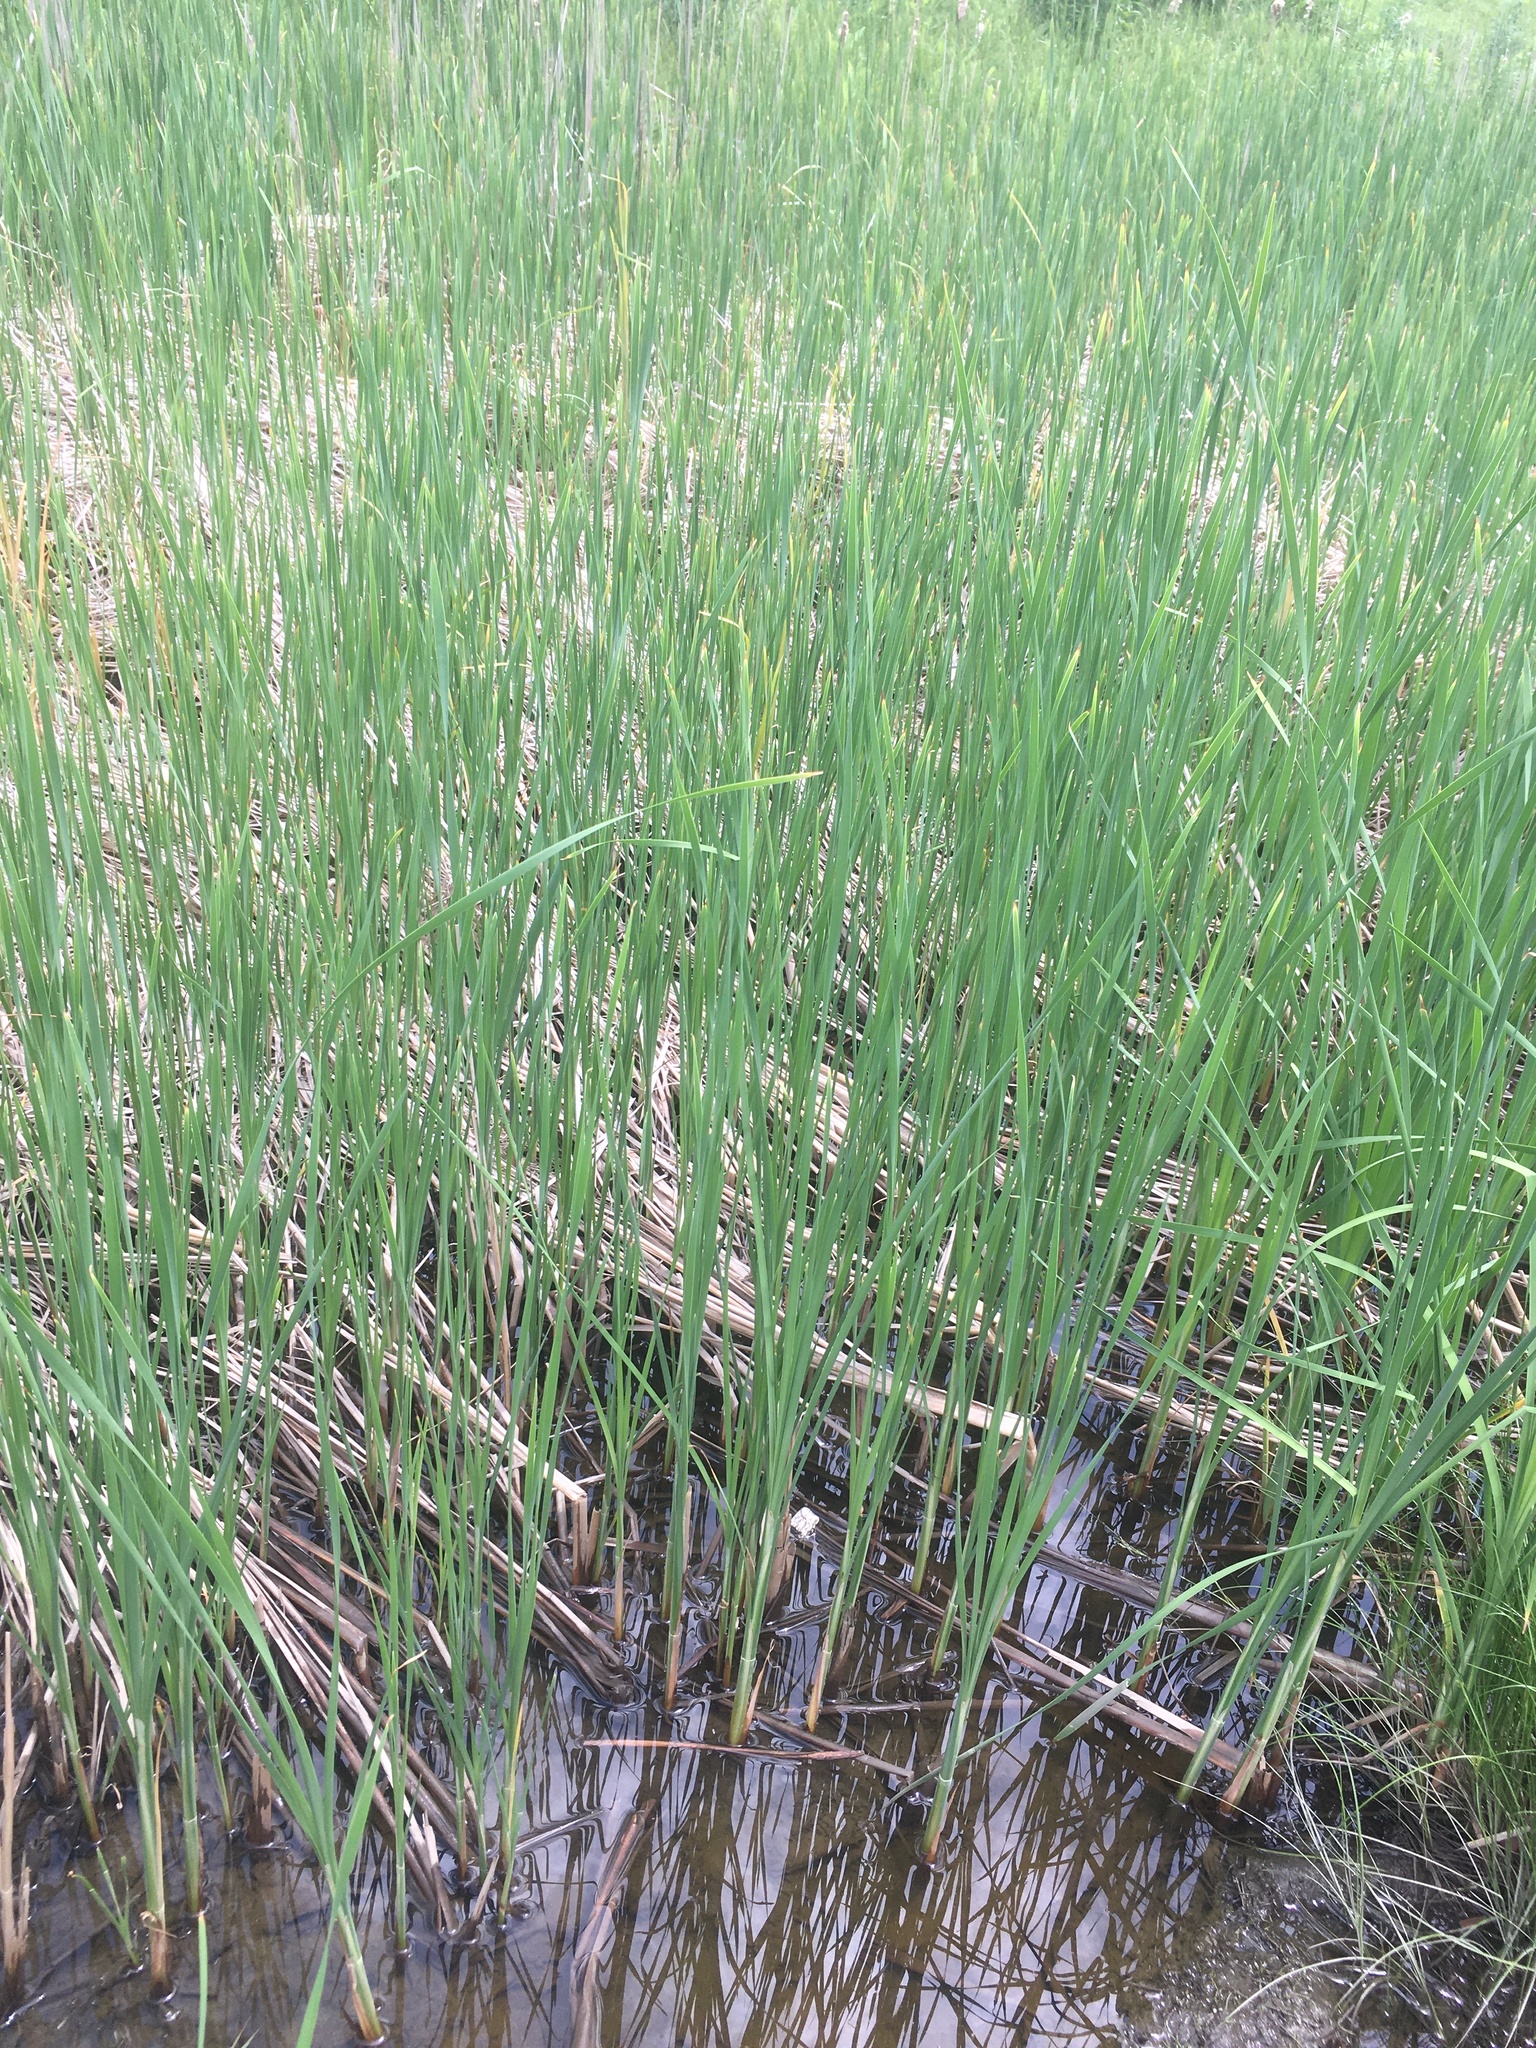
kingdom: Plantae
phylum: Tracheophyta
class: Liliopsida
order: Poales
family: Typhaceae
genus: Typha
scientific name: Typha angustifolia
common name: Lesser bulrush
